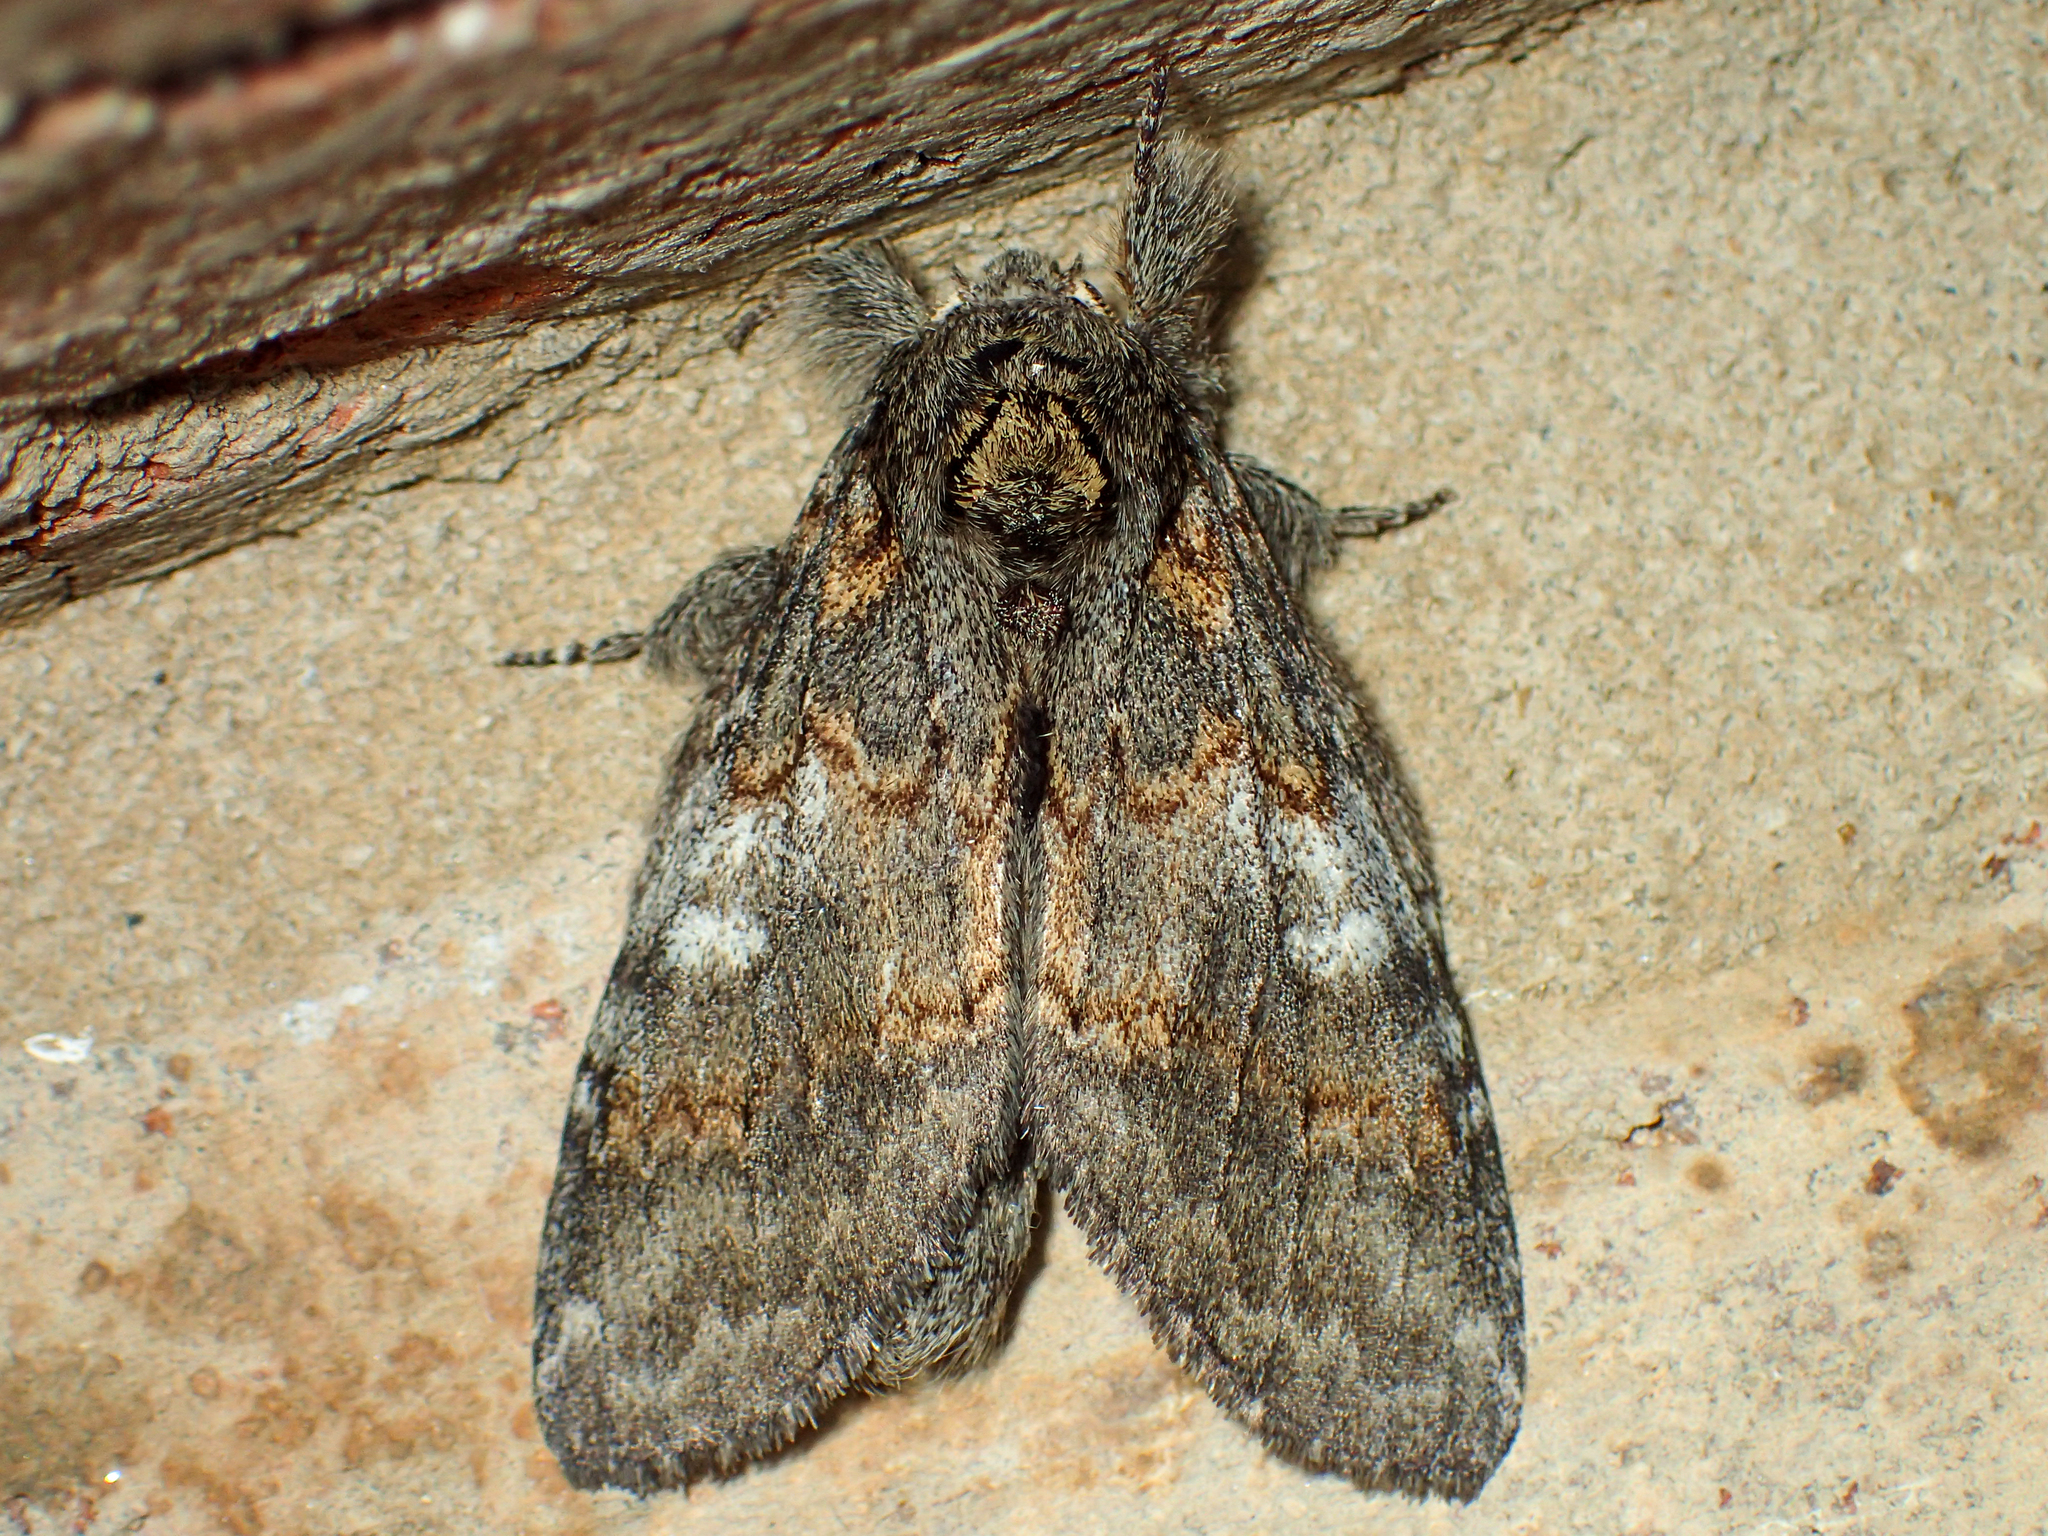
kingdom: Animalia
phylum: Arthropoda
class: Insecta
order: Lepidoptera
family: Notodontidae
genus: Peridea
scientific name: Peridea angulosa
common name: Angulose prominent
